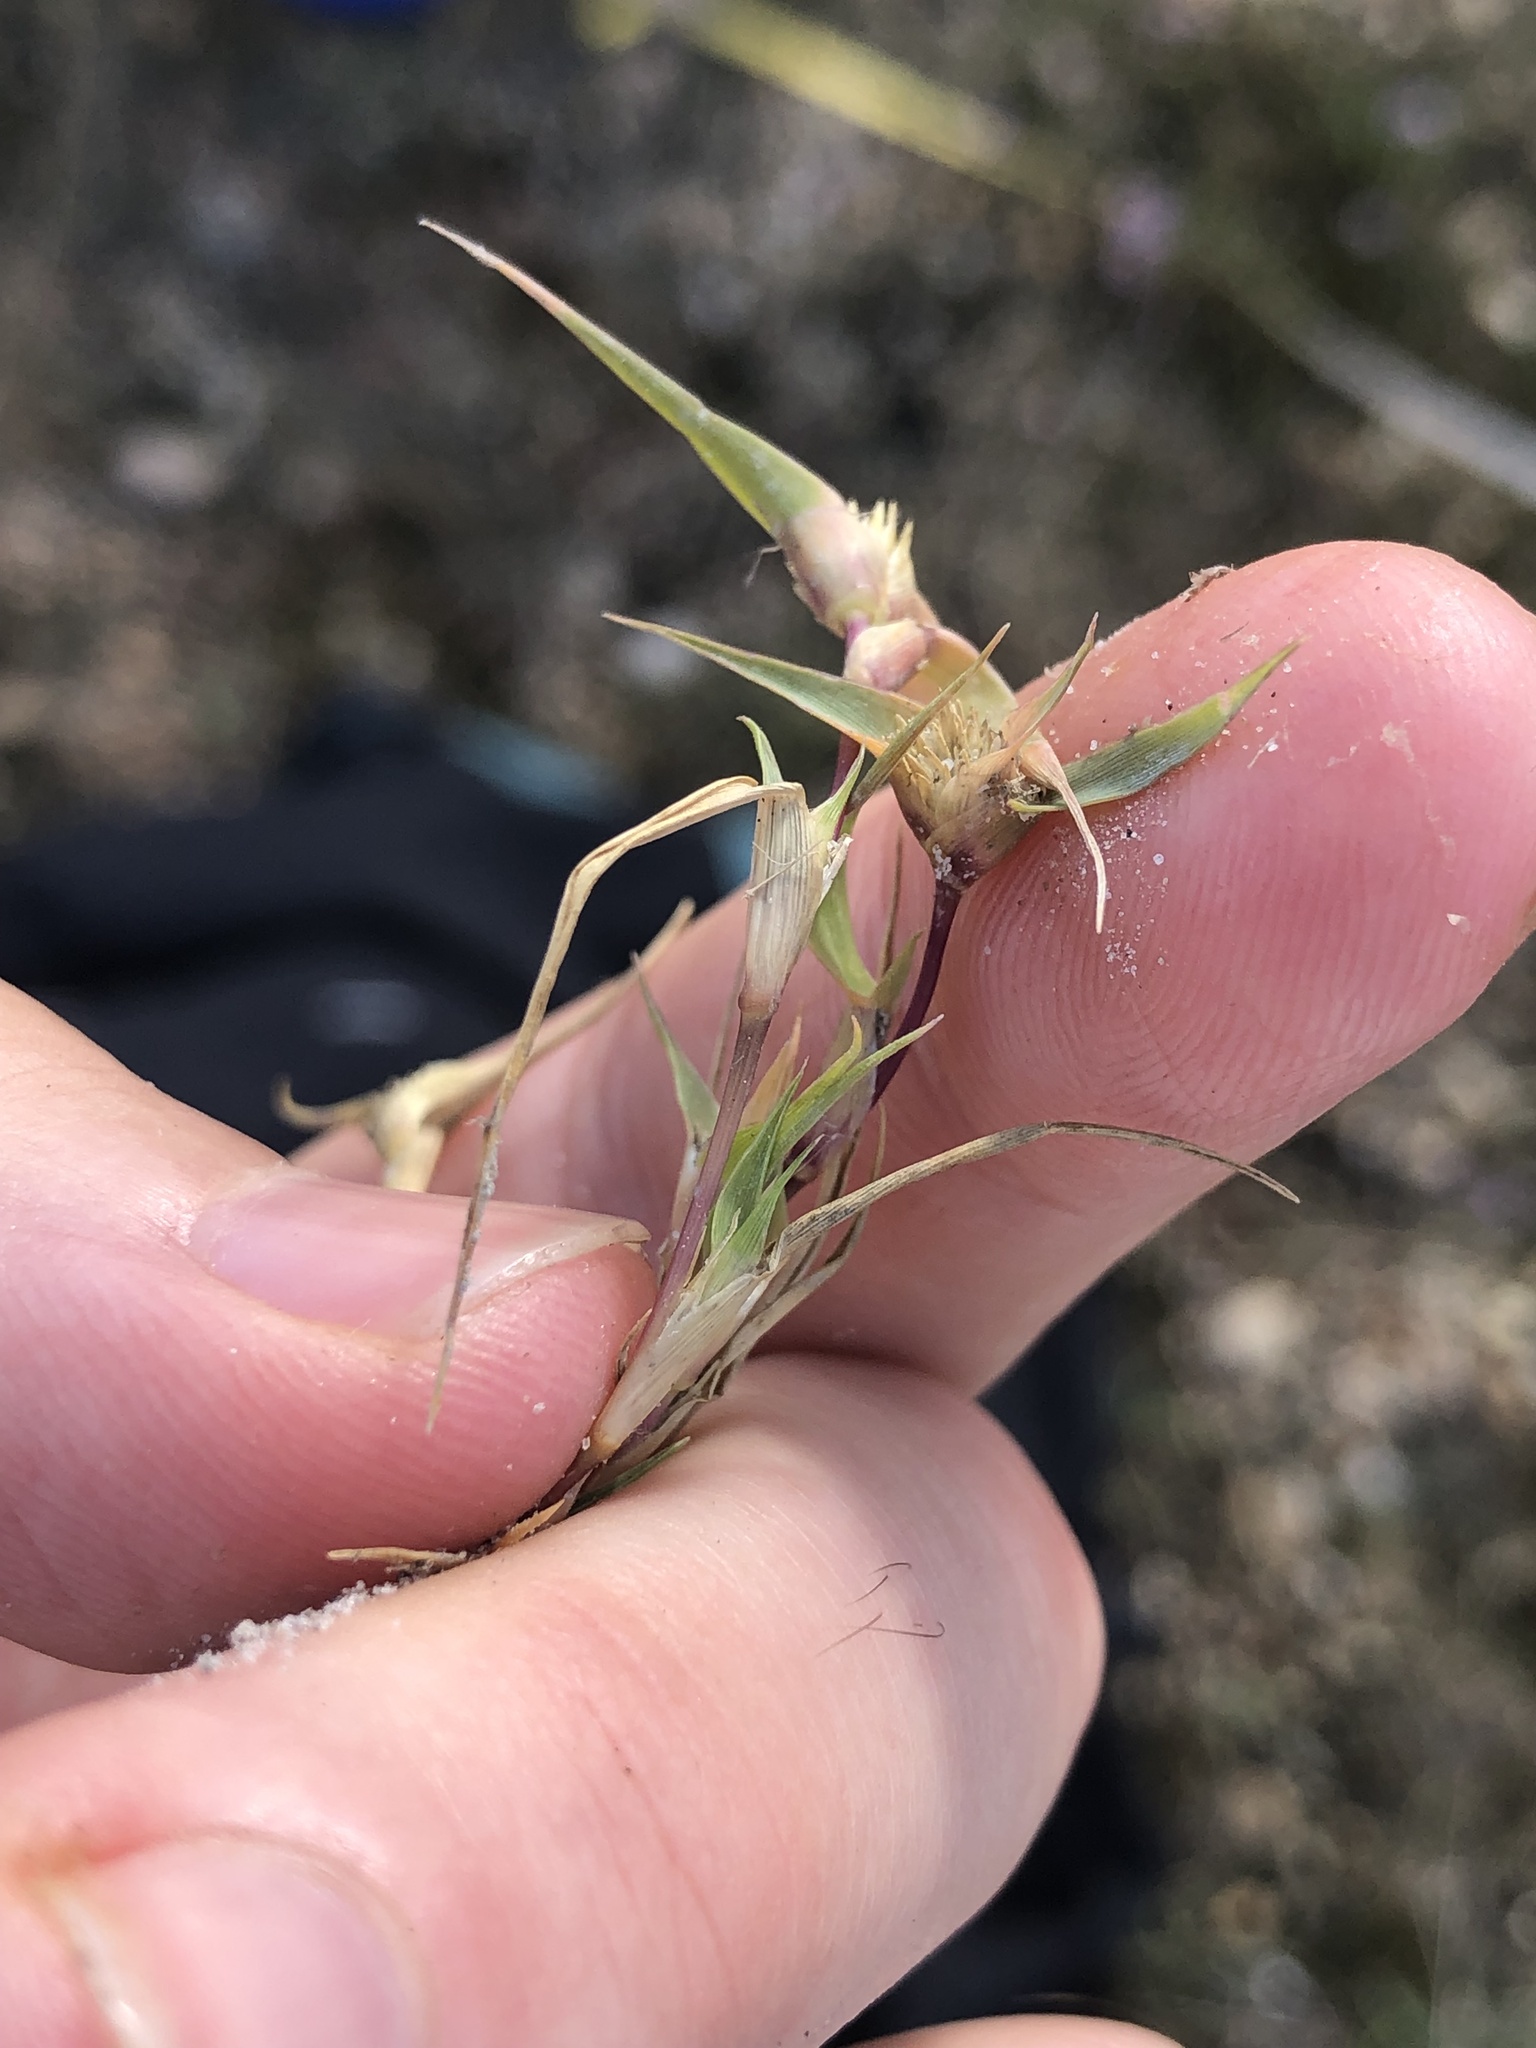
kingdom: Plantae
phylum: Tracheophyta
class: Liliopsida
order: Poales
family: Poaceae
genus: Sporobolus
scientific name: Sporobolus aculeatus
